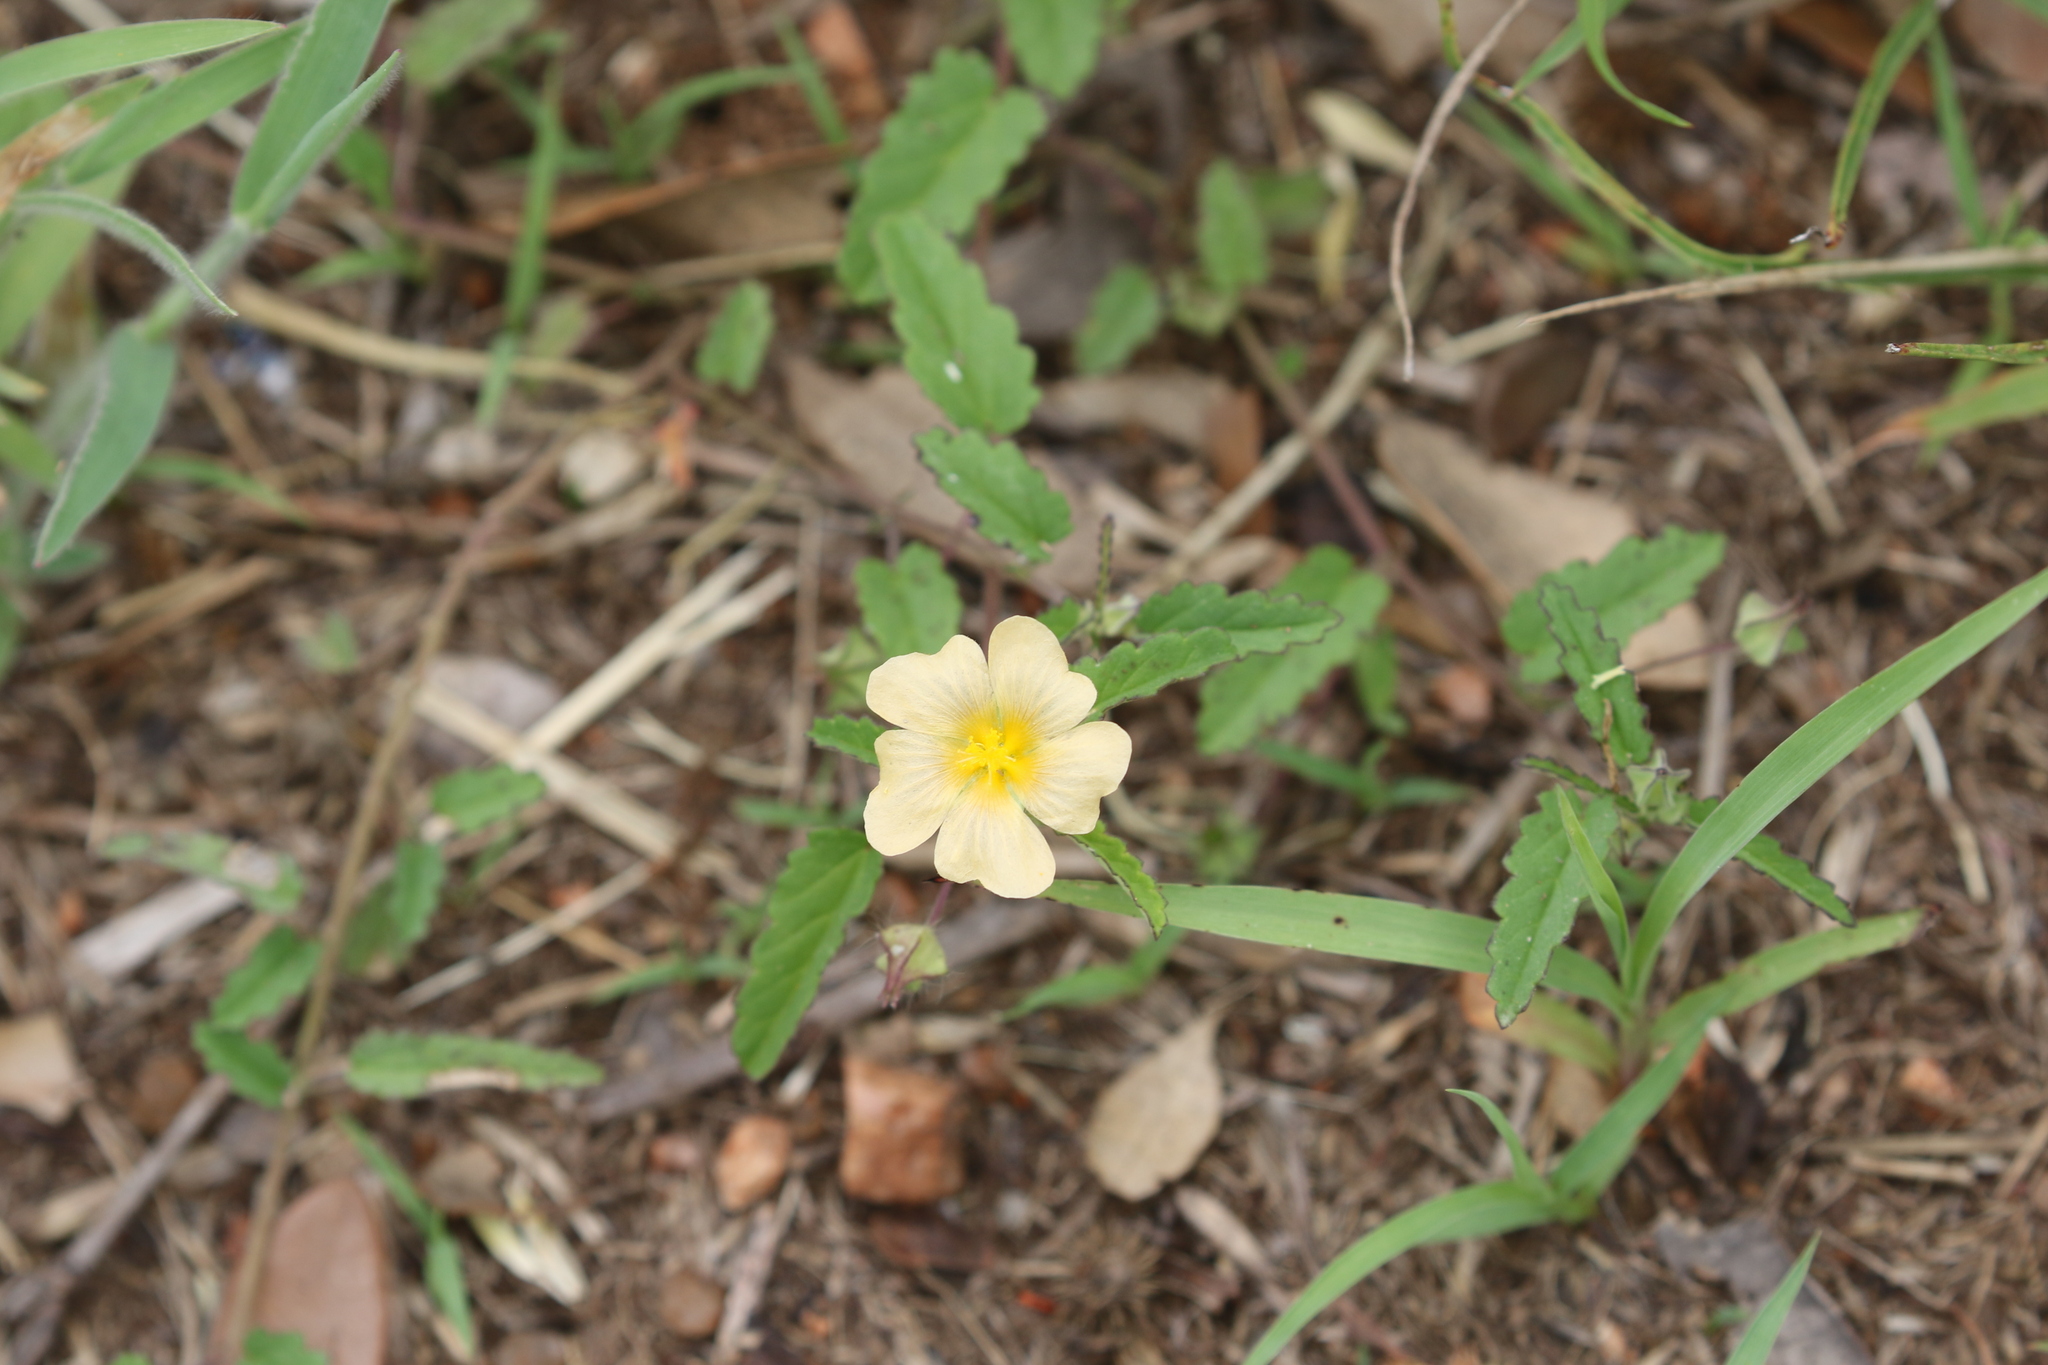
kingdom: Plantae
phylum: Tracheophyta
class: Magnoliopsida
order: Malvales
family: Malvaceae
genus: Sida
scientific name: Sida abutilifolia
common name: Spreading fanpetals
